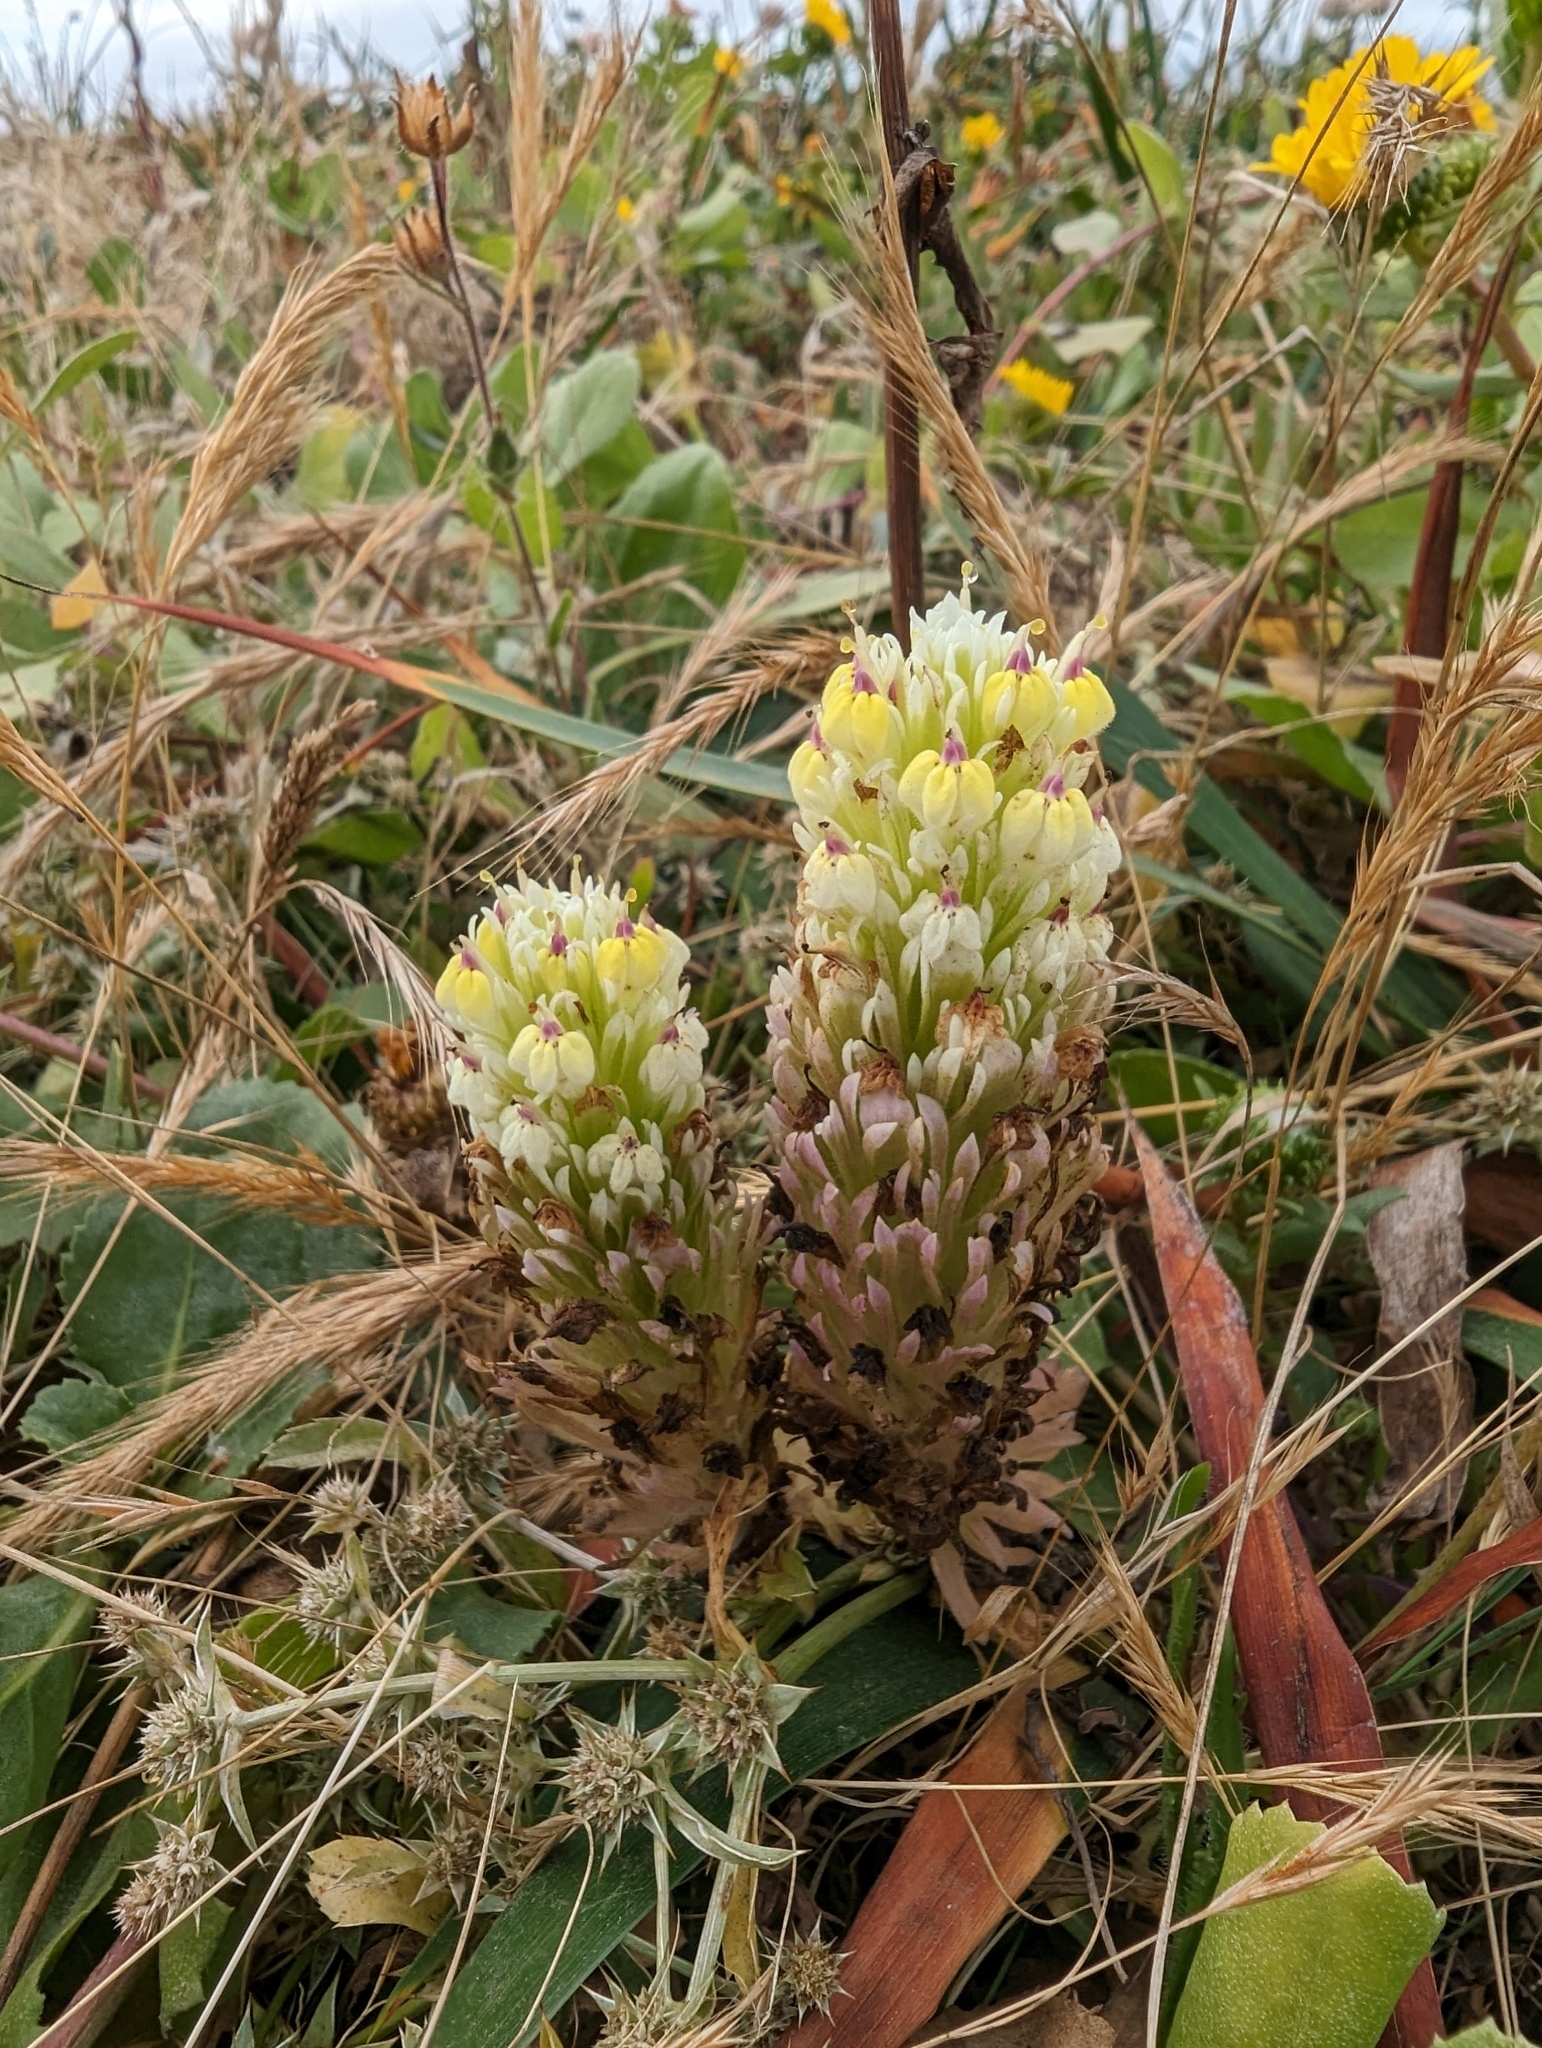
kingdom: Plantae
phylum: Tracheophyta
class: Magnoliopsida
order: Lamiales
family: Orobanchaceae
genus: Castilleja
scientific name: Castilleja ambigua
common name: Johnny-nip
